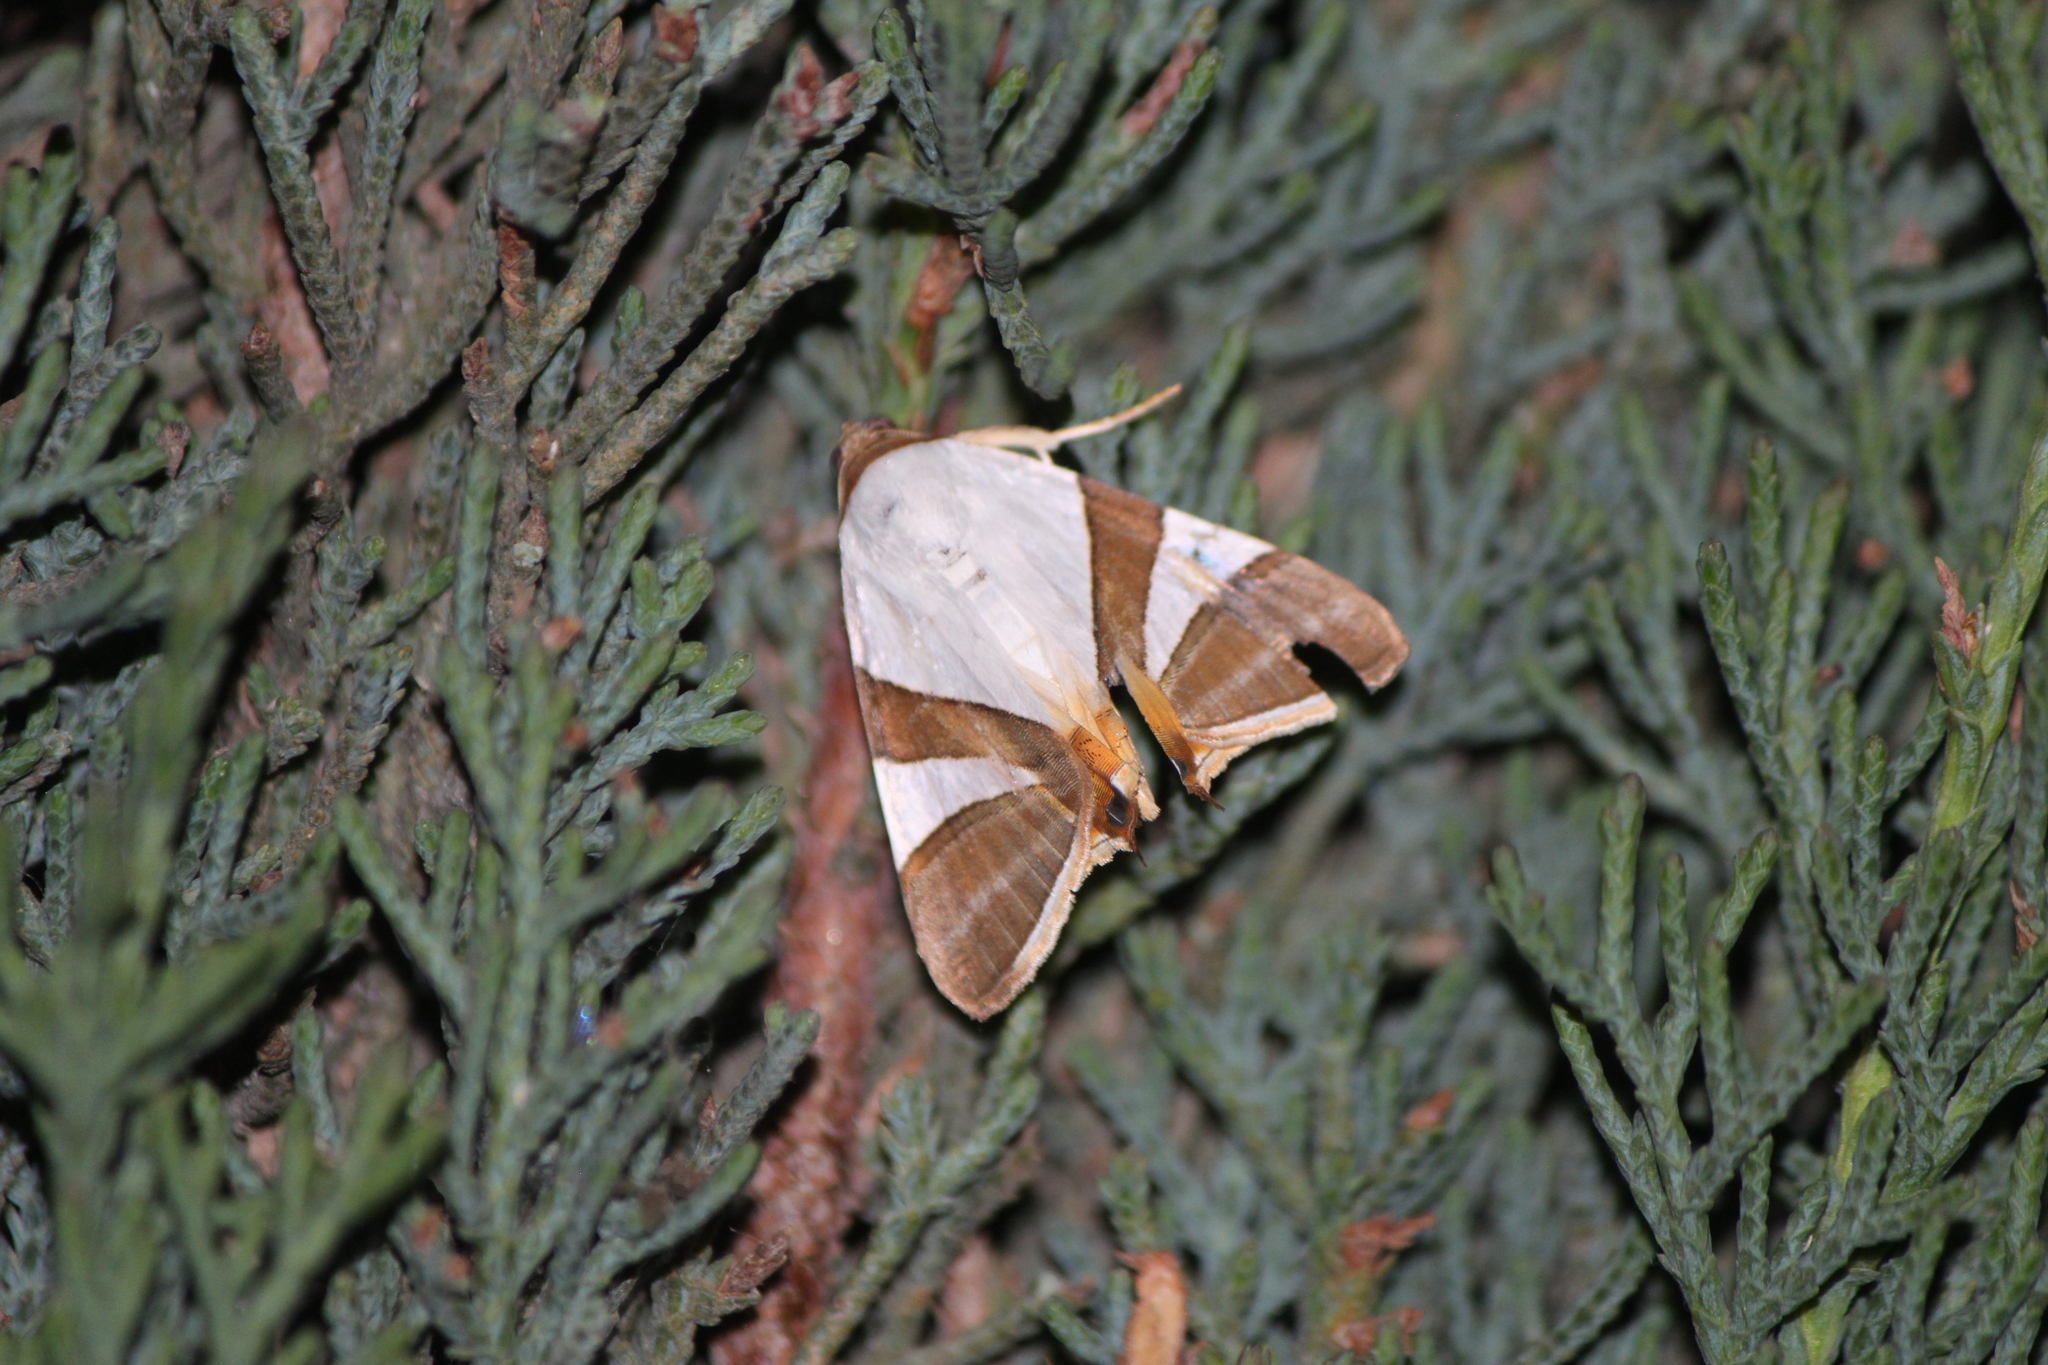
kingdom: Animalia
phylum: Arthropoda
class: Insecta
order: Lepidoptera
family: Erebidae
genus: Eulepidotis
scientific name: Eulepidotis rectimargo
